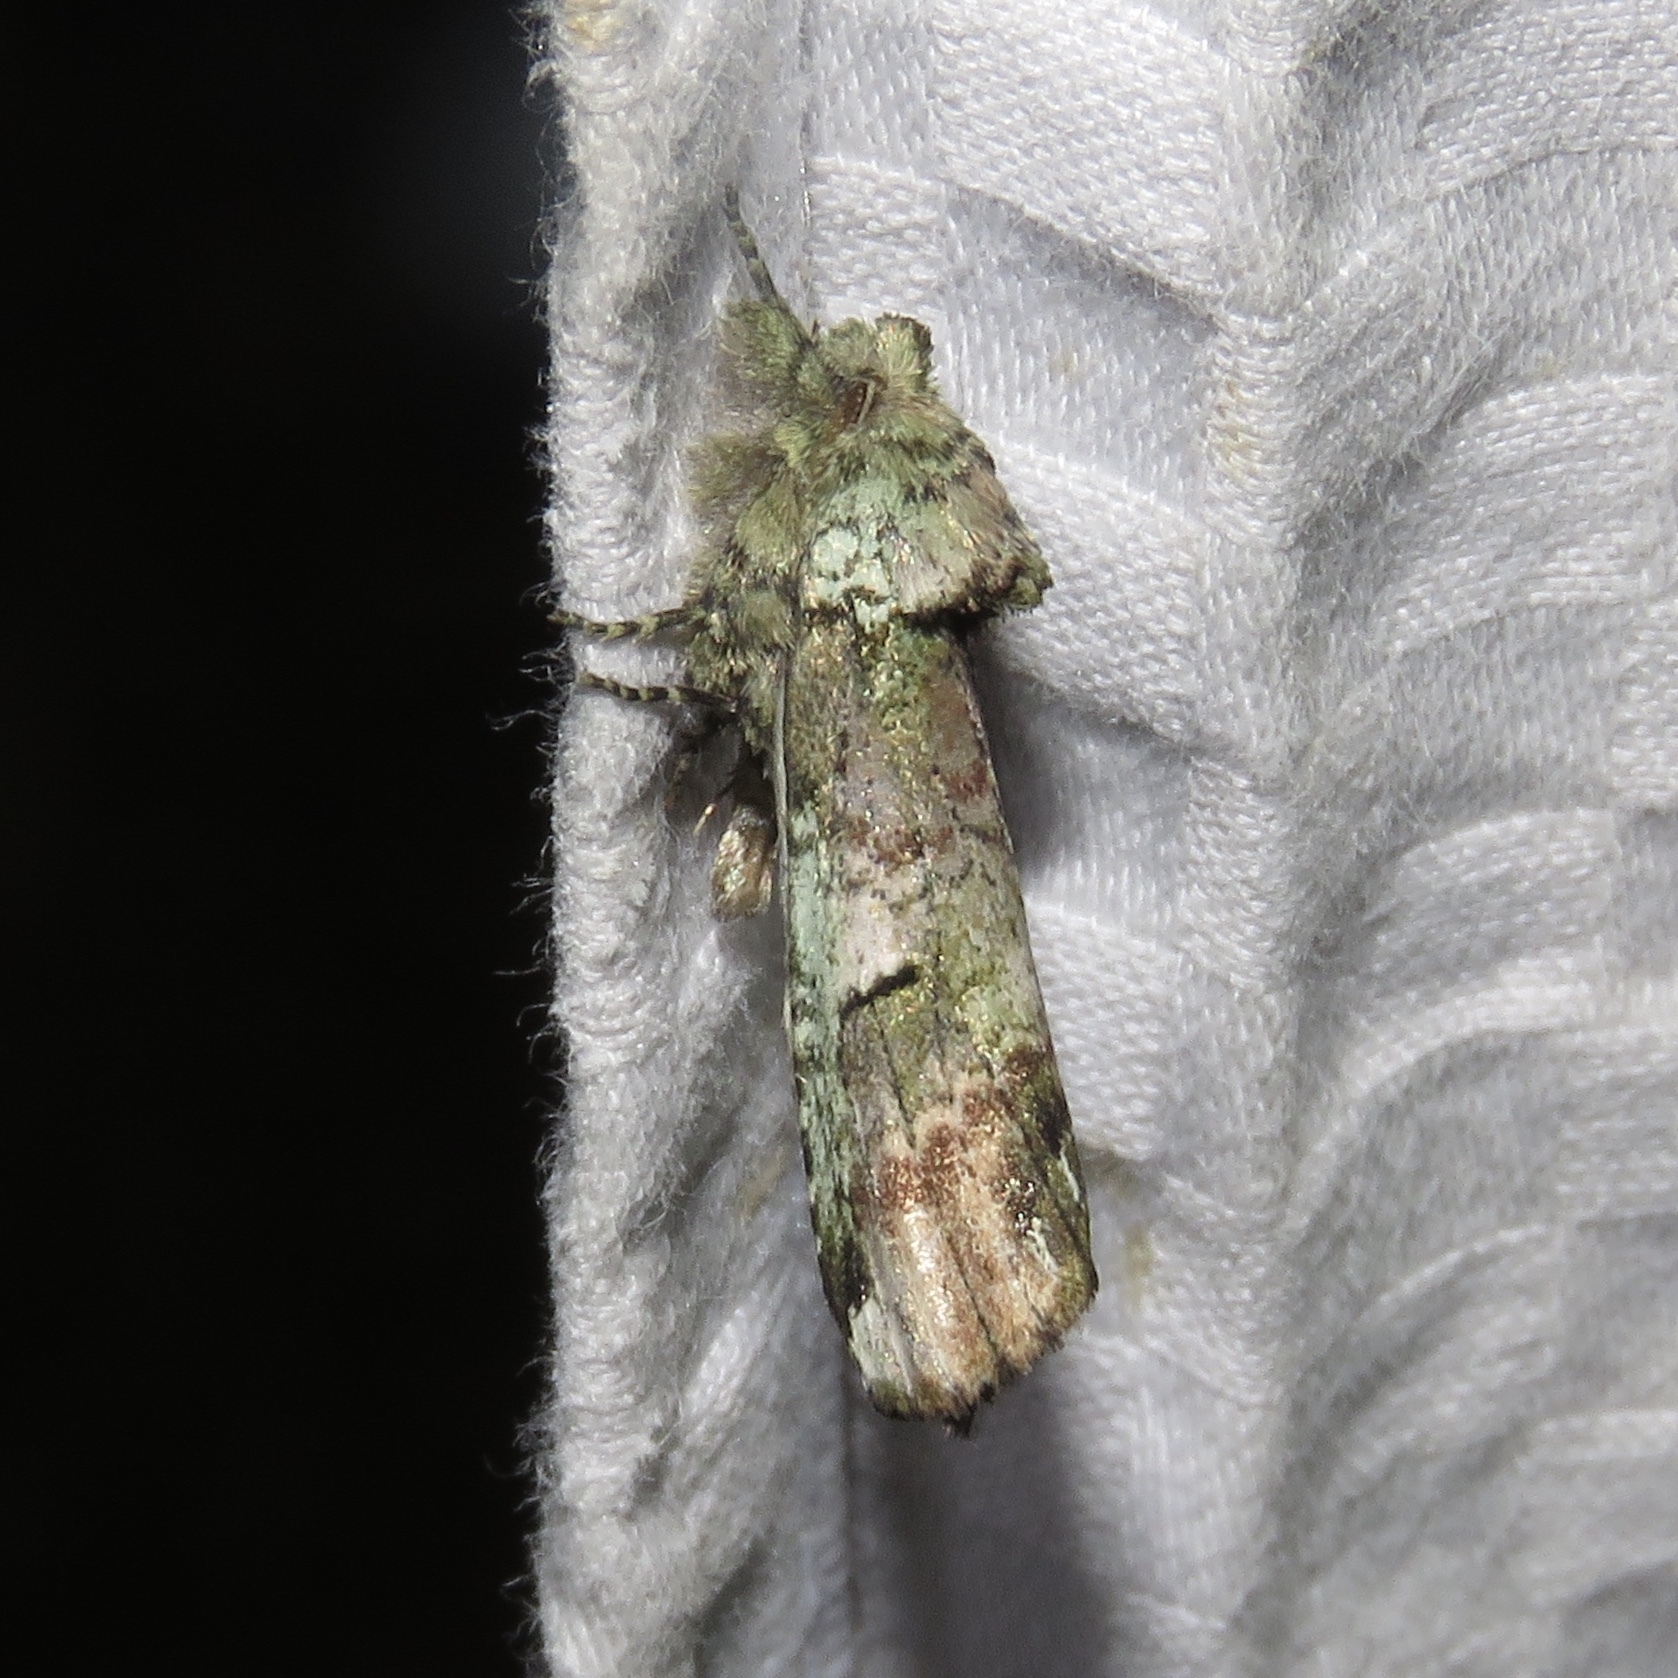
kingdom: Animalia
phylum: Arthropoda
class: Insecta
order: Lepidoptera
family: Notodontidae
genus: Schizura
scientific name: Schizura
